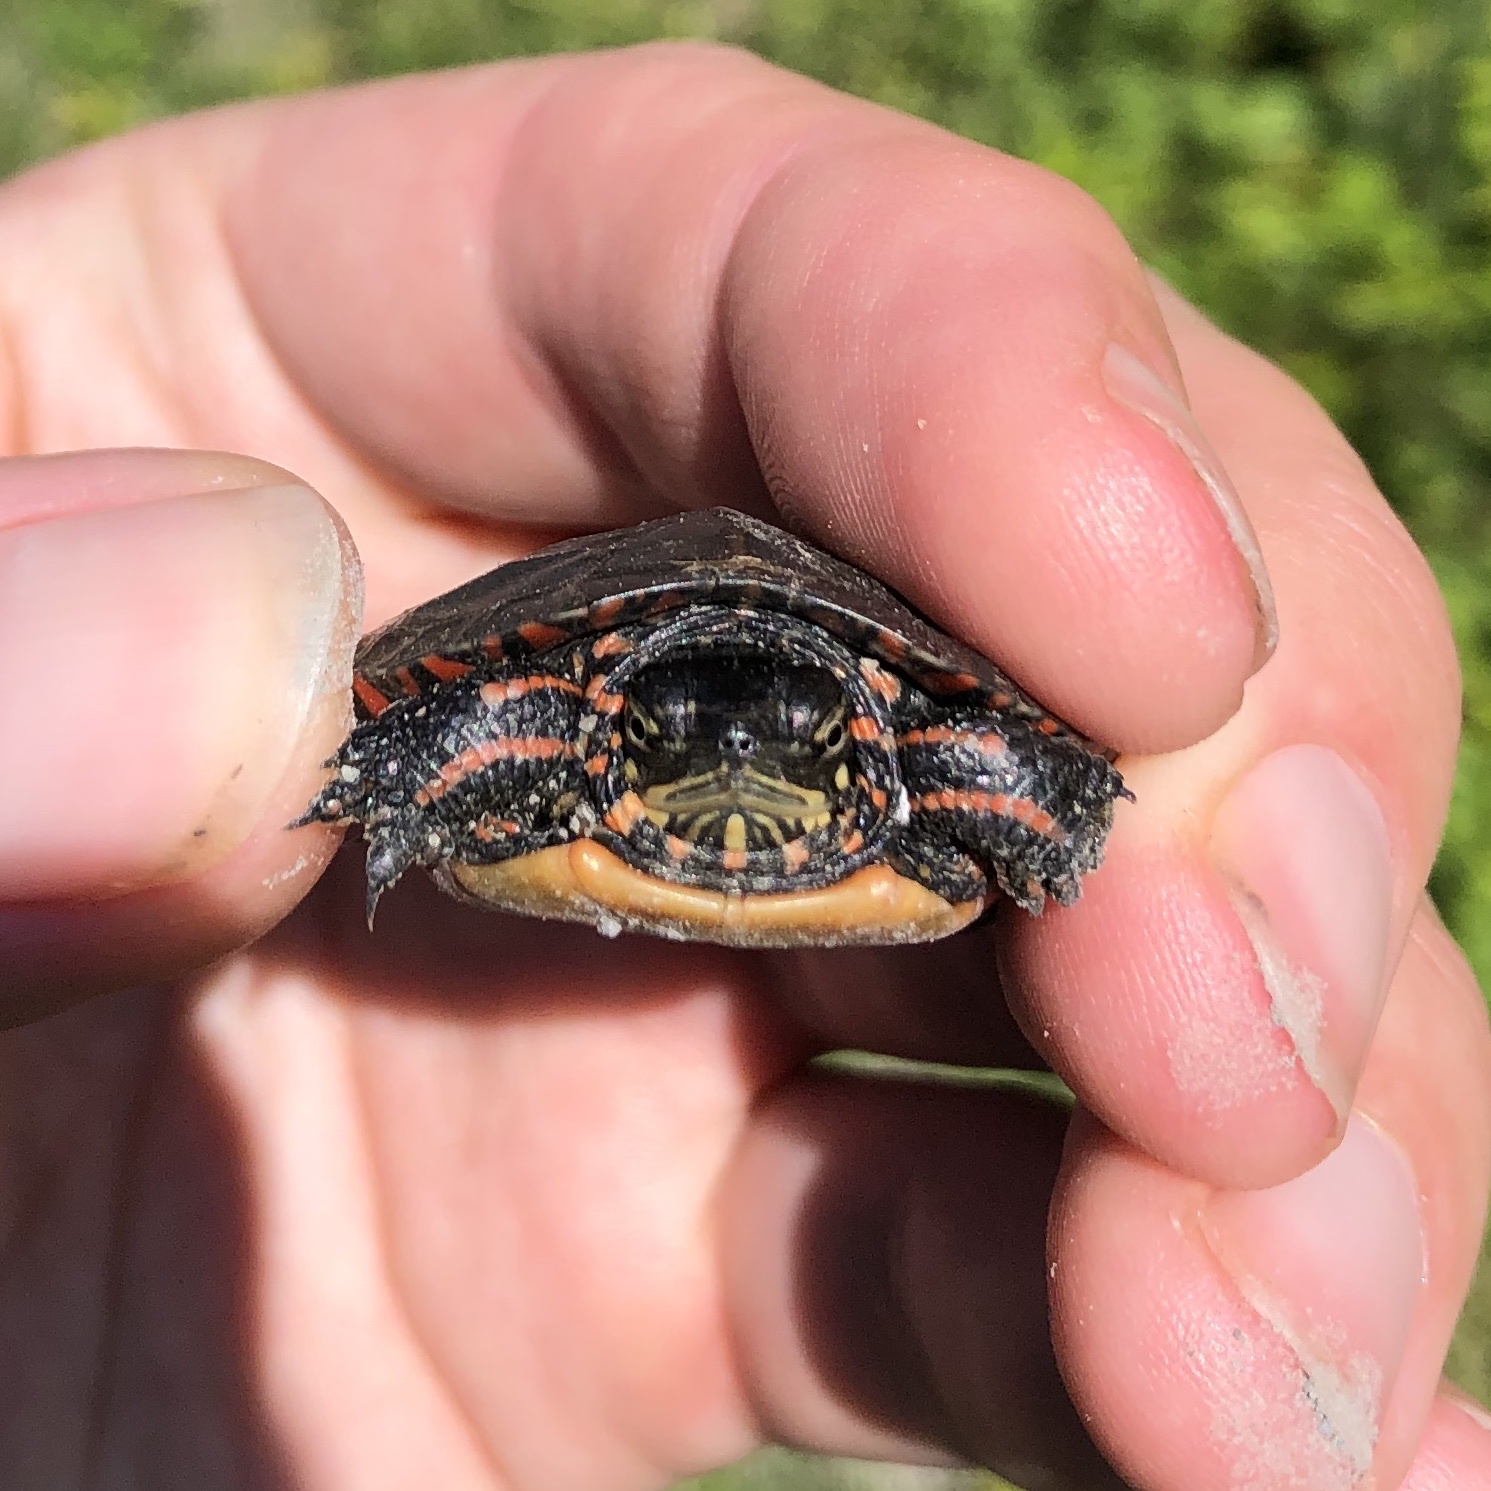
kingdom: Animalia
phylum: Chordata
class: Testudines
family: Emydidae
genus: Chrysemys
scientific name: Chrysemys picta
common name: Painted turtle
